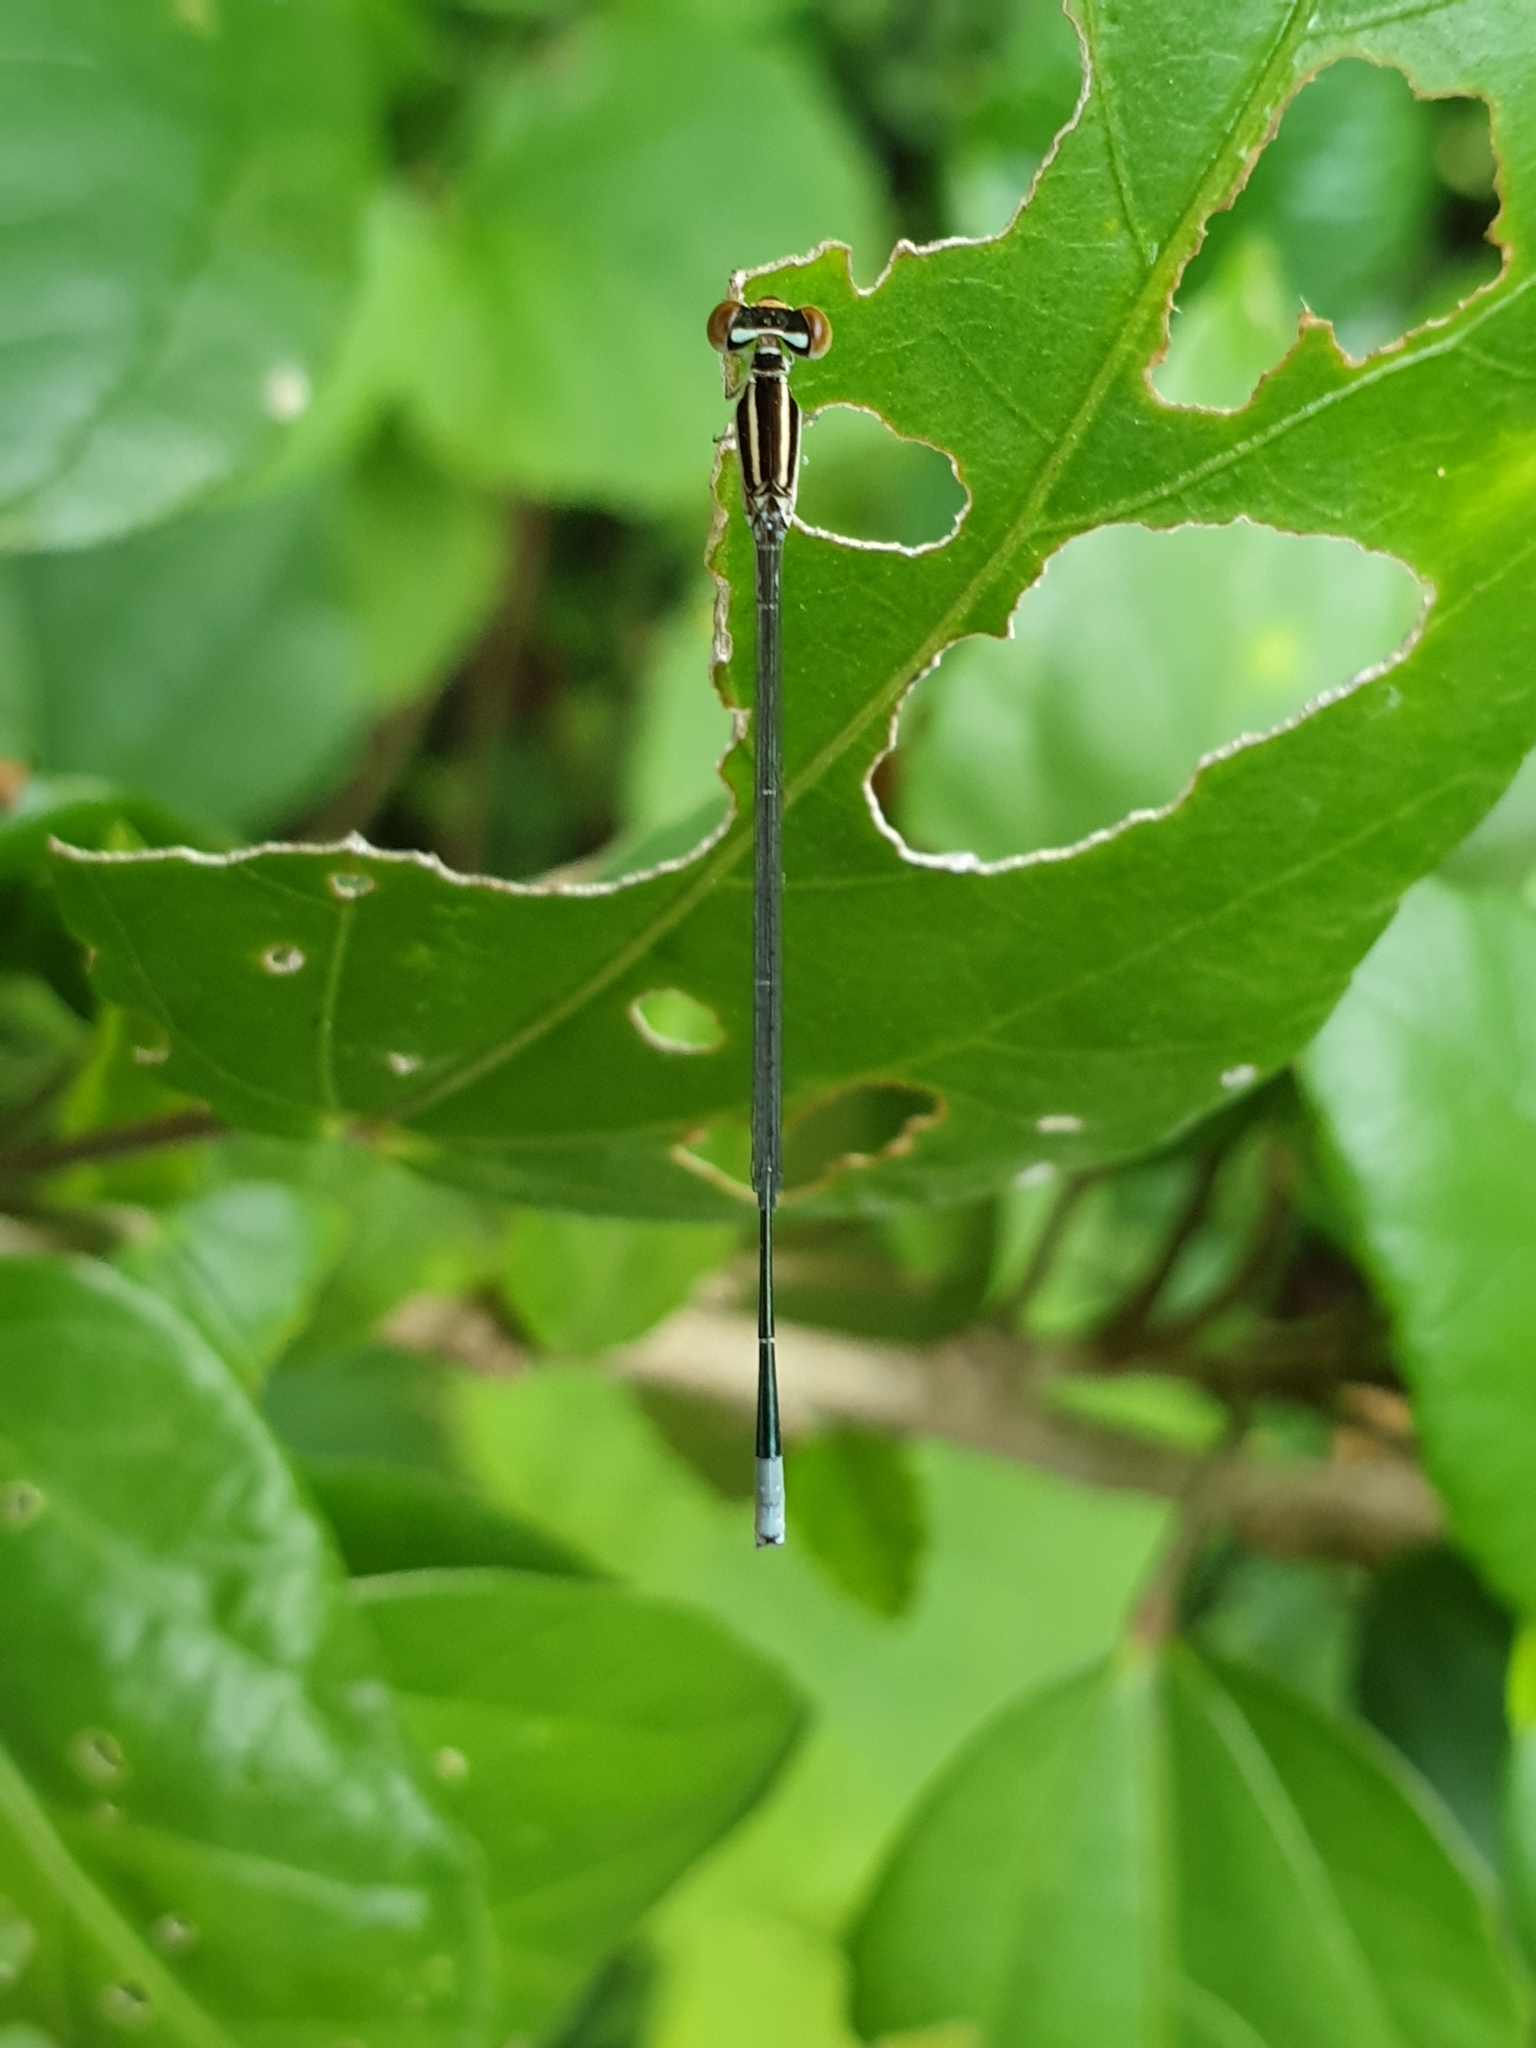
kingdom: Animalia
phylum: Arthropoda
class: Insecta
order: Odonata
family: Coenagrionidae
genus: Aciagrion
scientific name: Aciagrion occidentale
